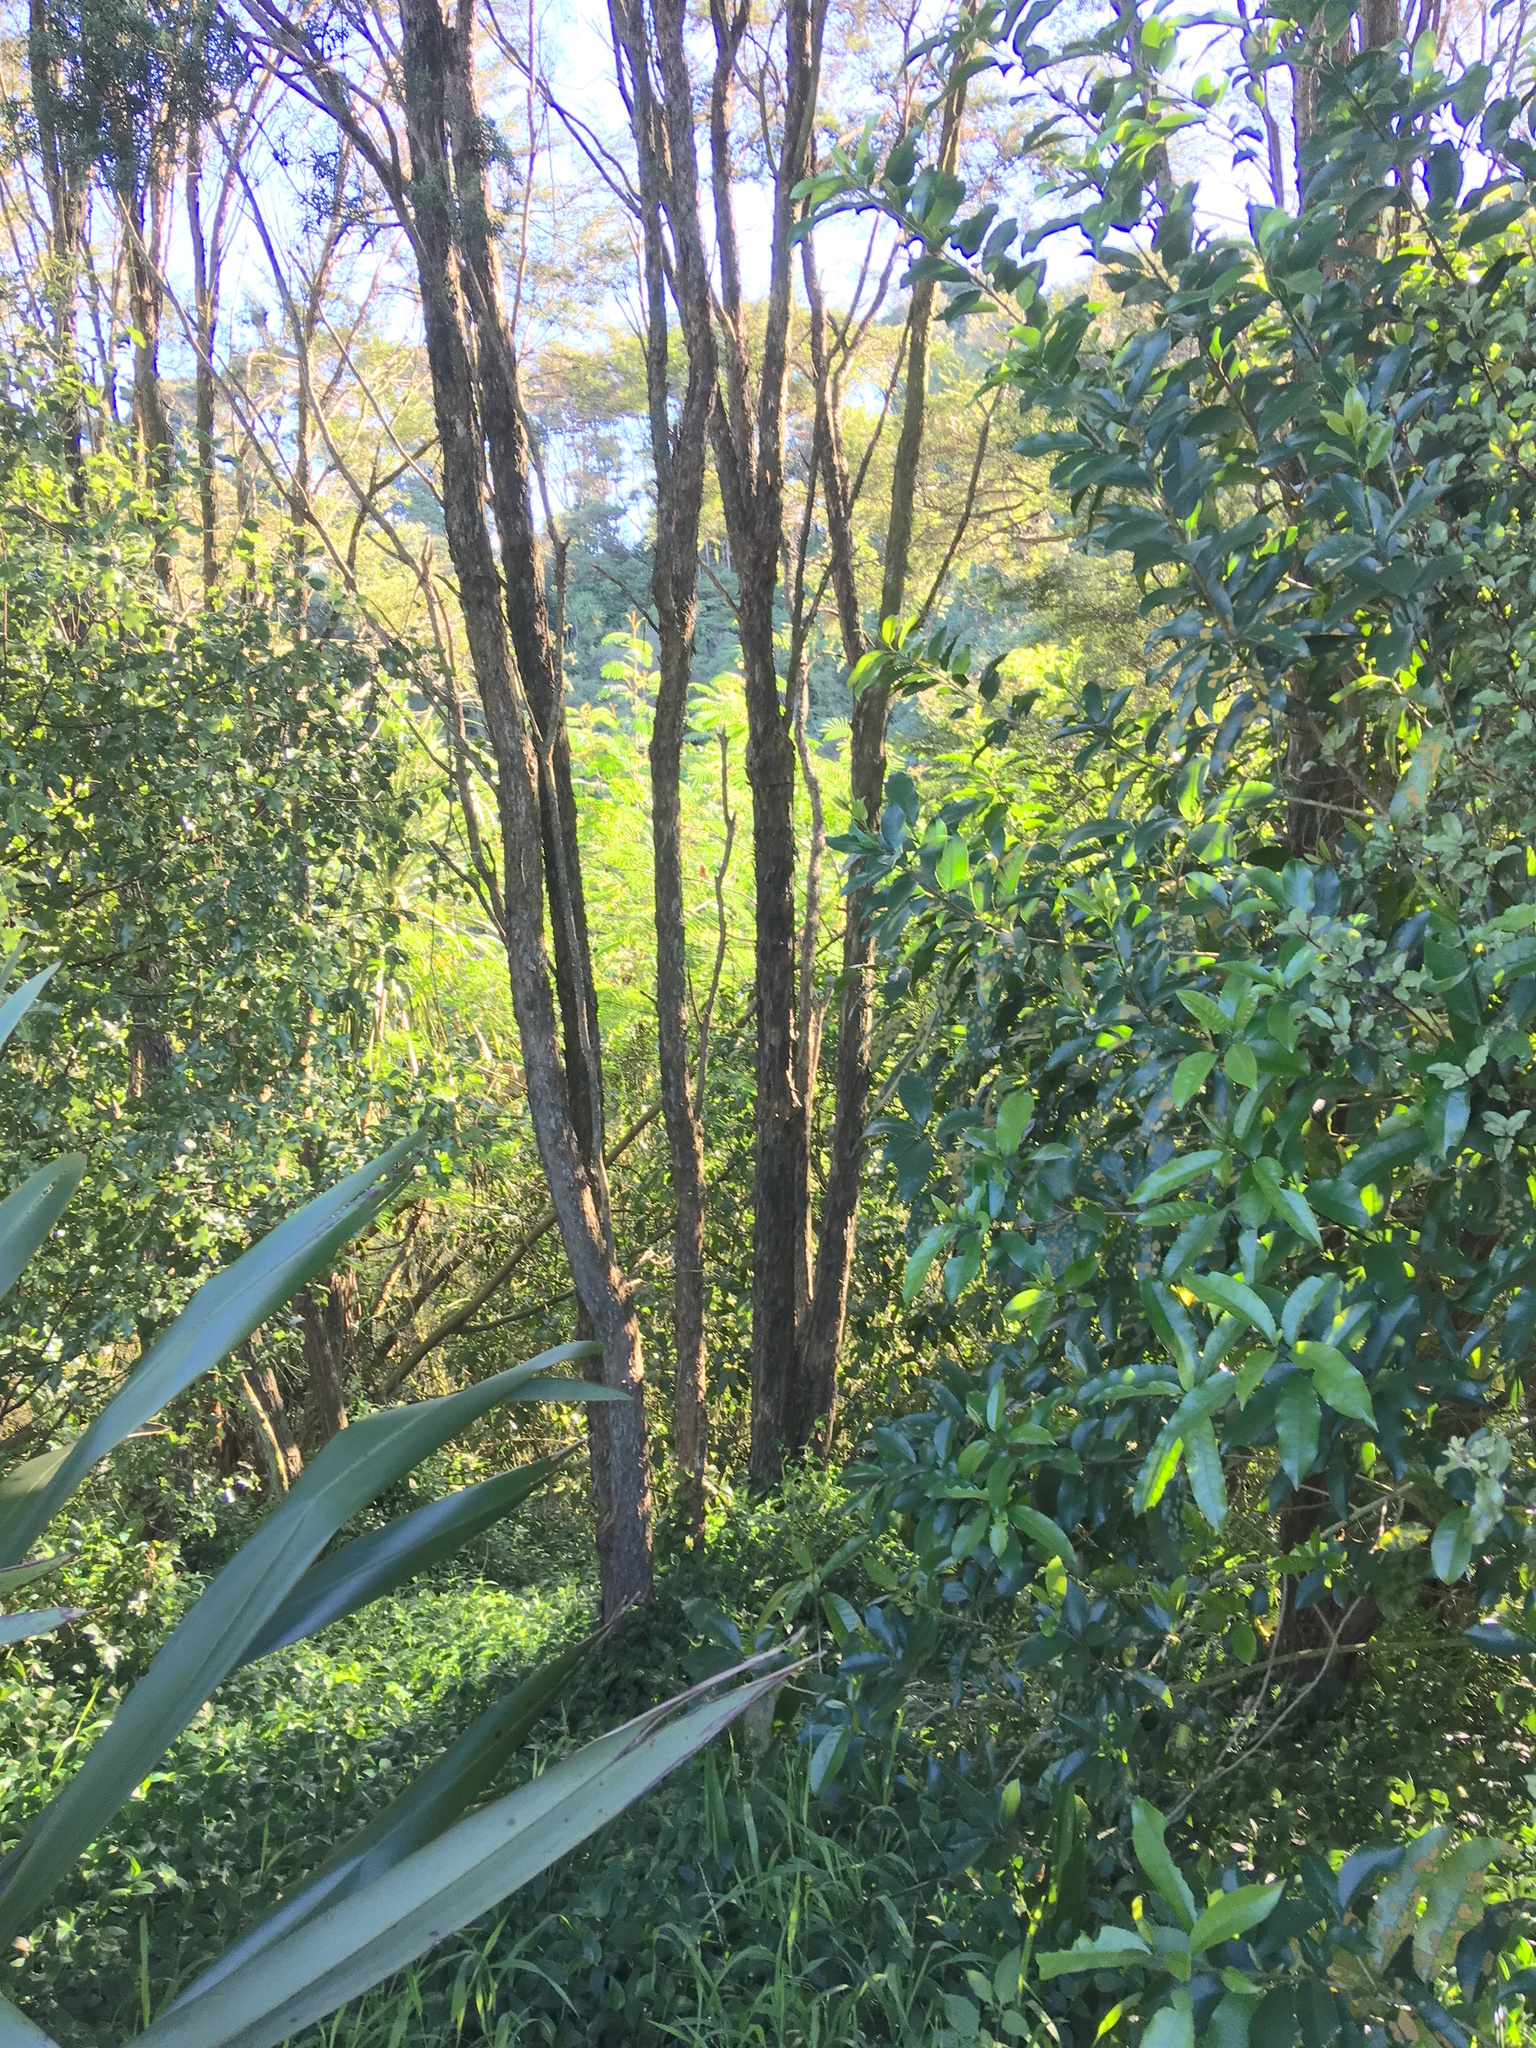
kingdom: Plantae
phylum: Tracheophyta
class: Magnoliopsida
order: Fabales
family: Fabaceae
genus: Paraserianthes
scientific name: Paraserianthes lophantha
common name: Plume albizia
